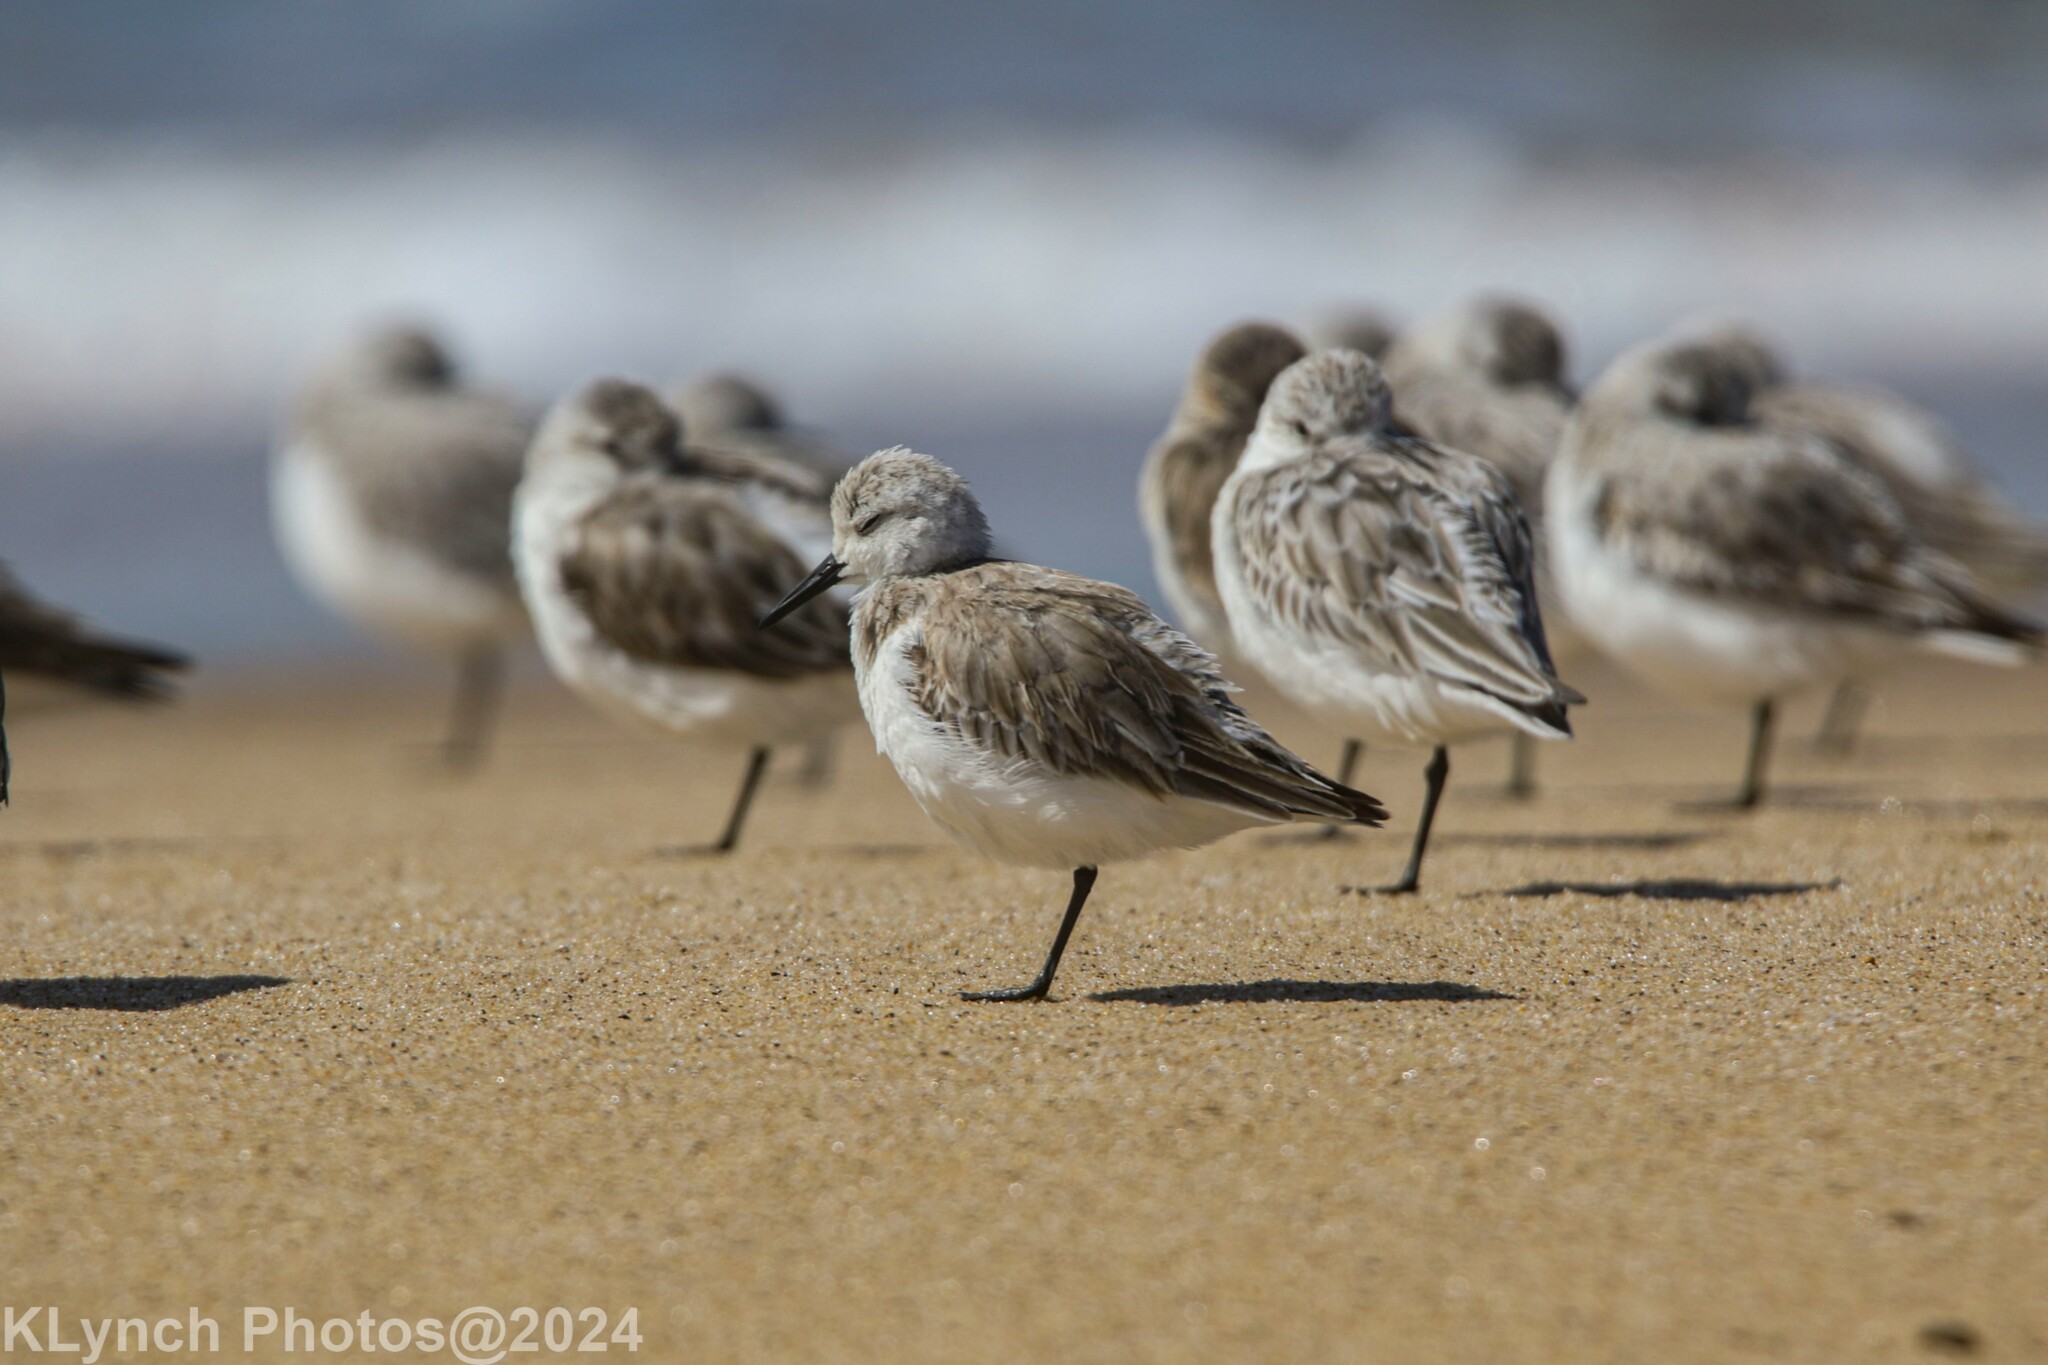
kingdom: Animalia
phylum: Chordata
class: Aves
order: Charadriiformes
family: Scolopacidae
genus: Calidris
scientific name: Calidris alba
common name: Sanderling
